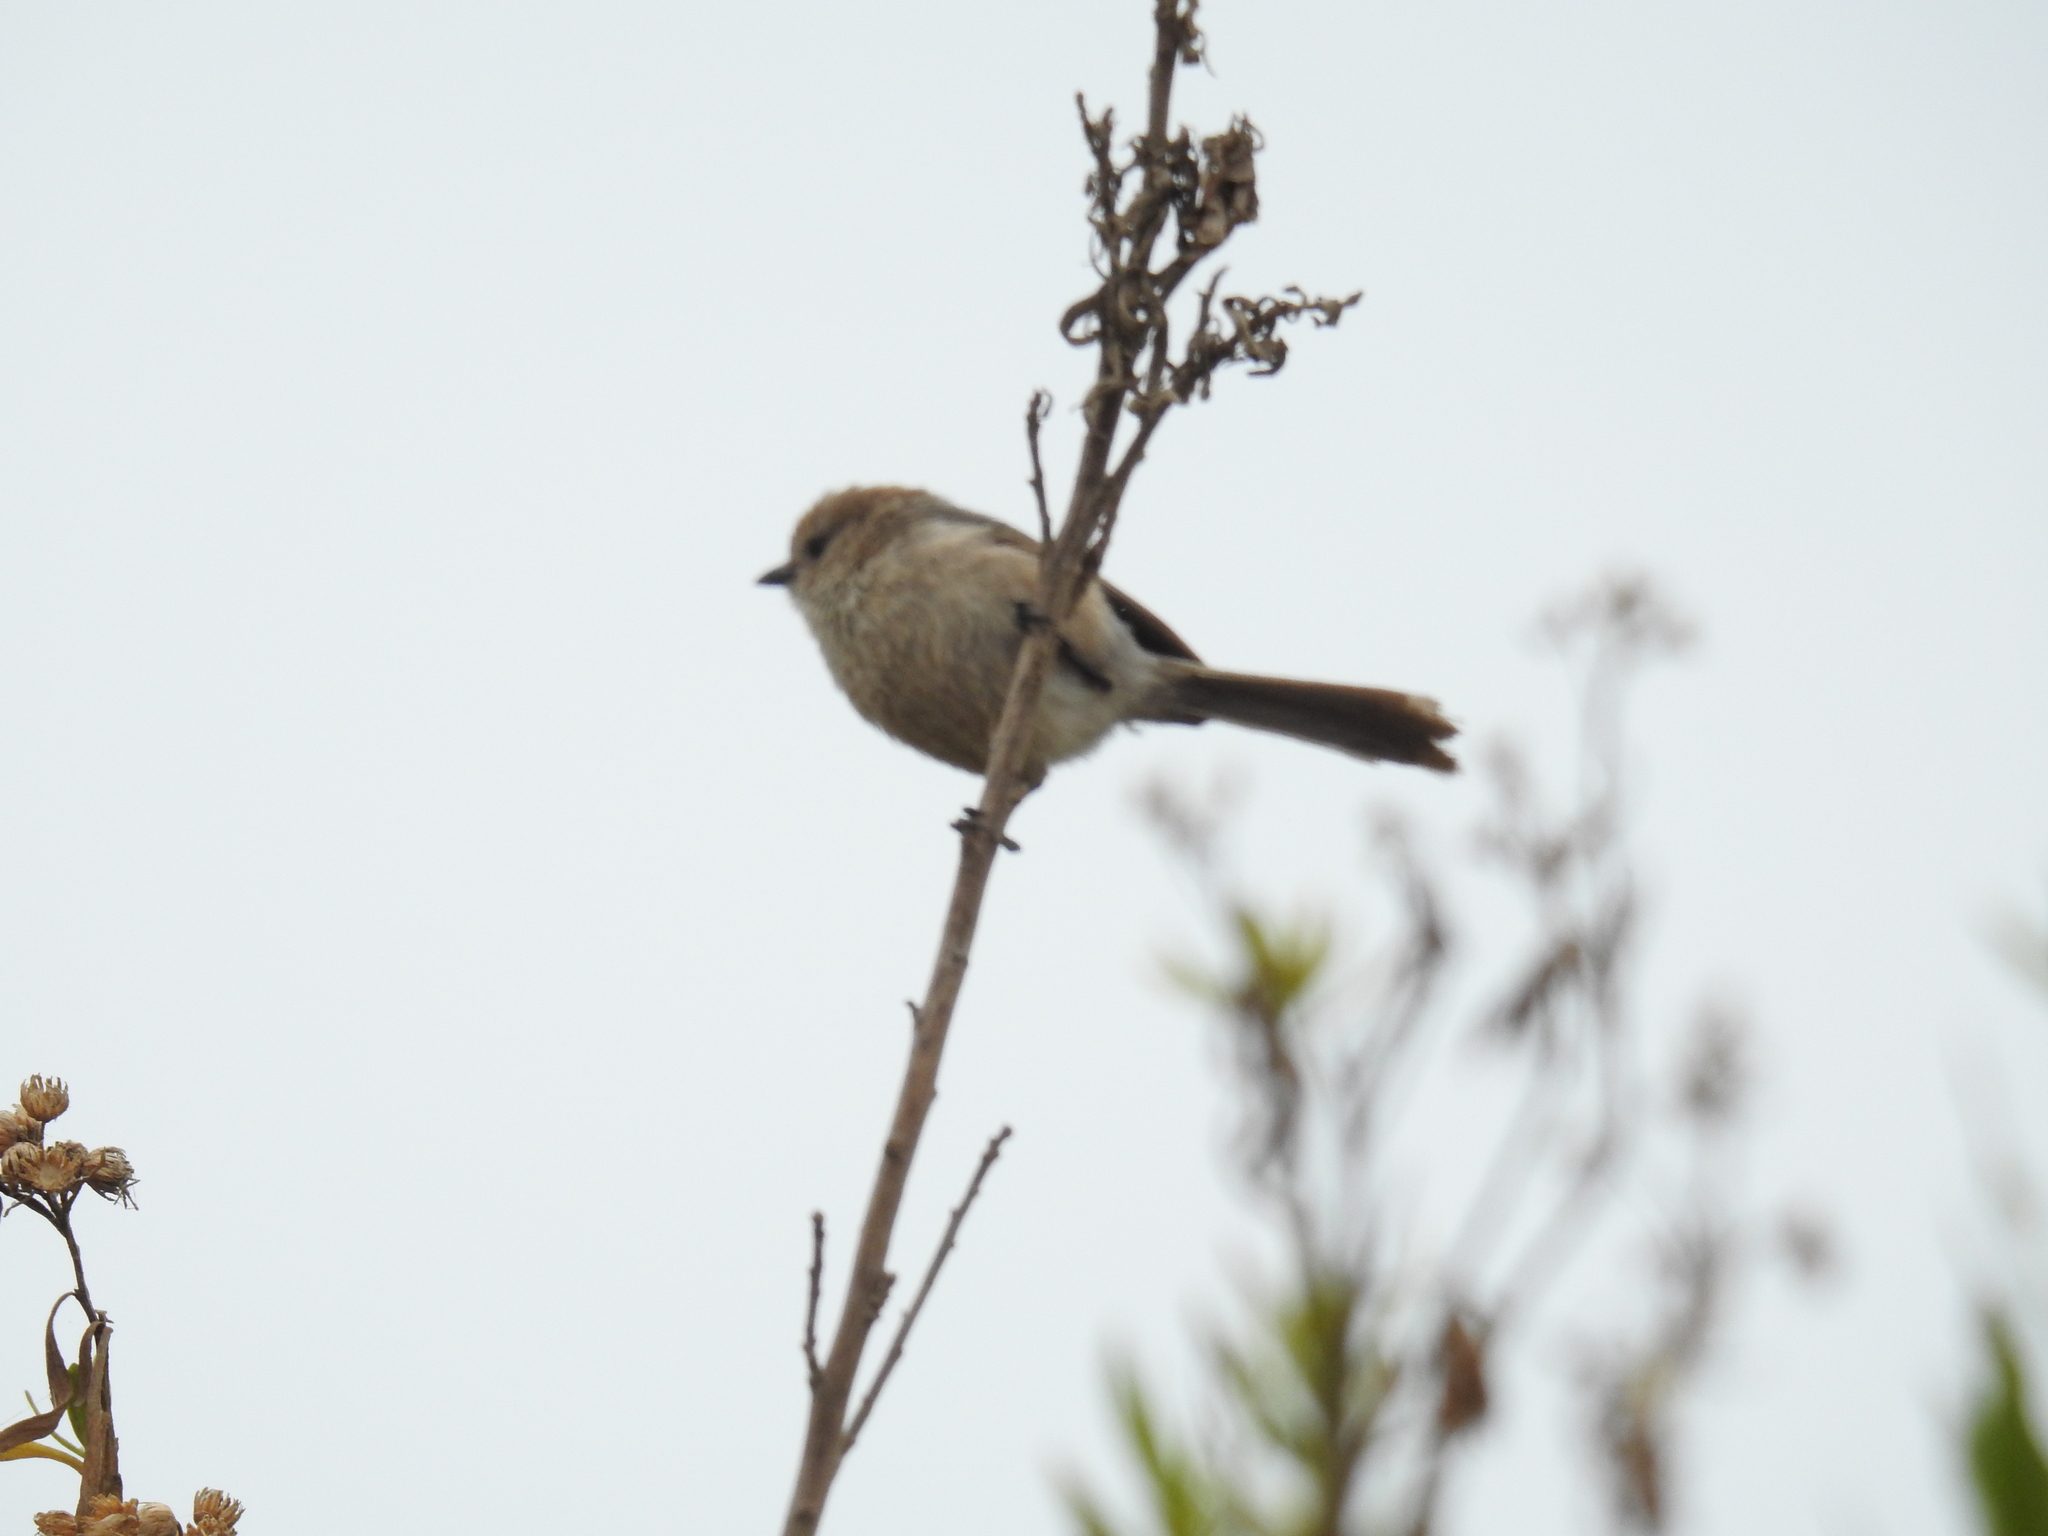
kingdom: Animalia
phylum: Chordata
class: Aves
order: Passeriformes
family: Aegithalidae
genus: Psaltriparus
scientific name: Psaltriparus minimus
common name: American bushtit
